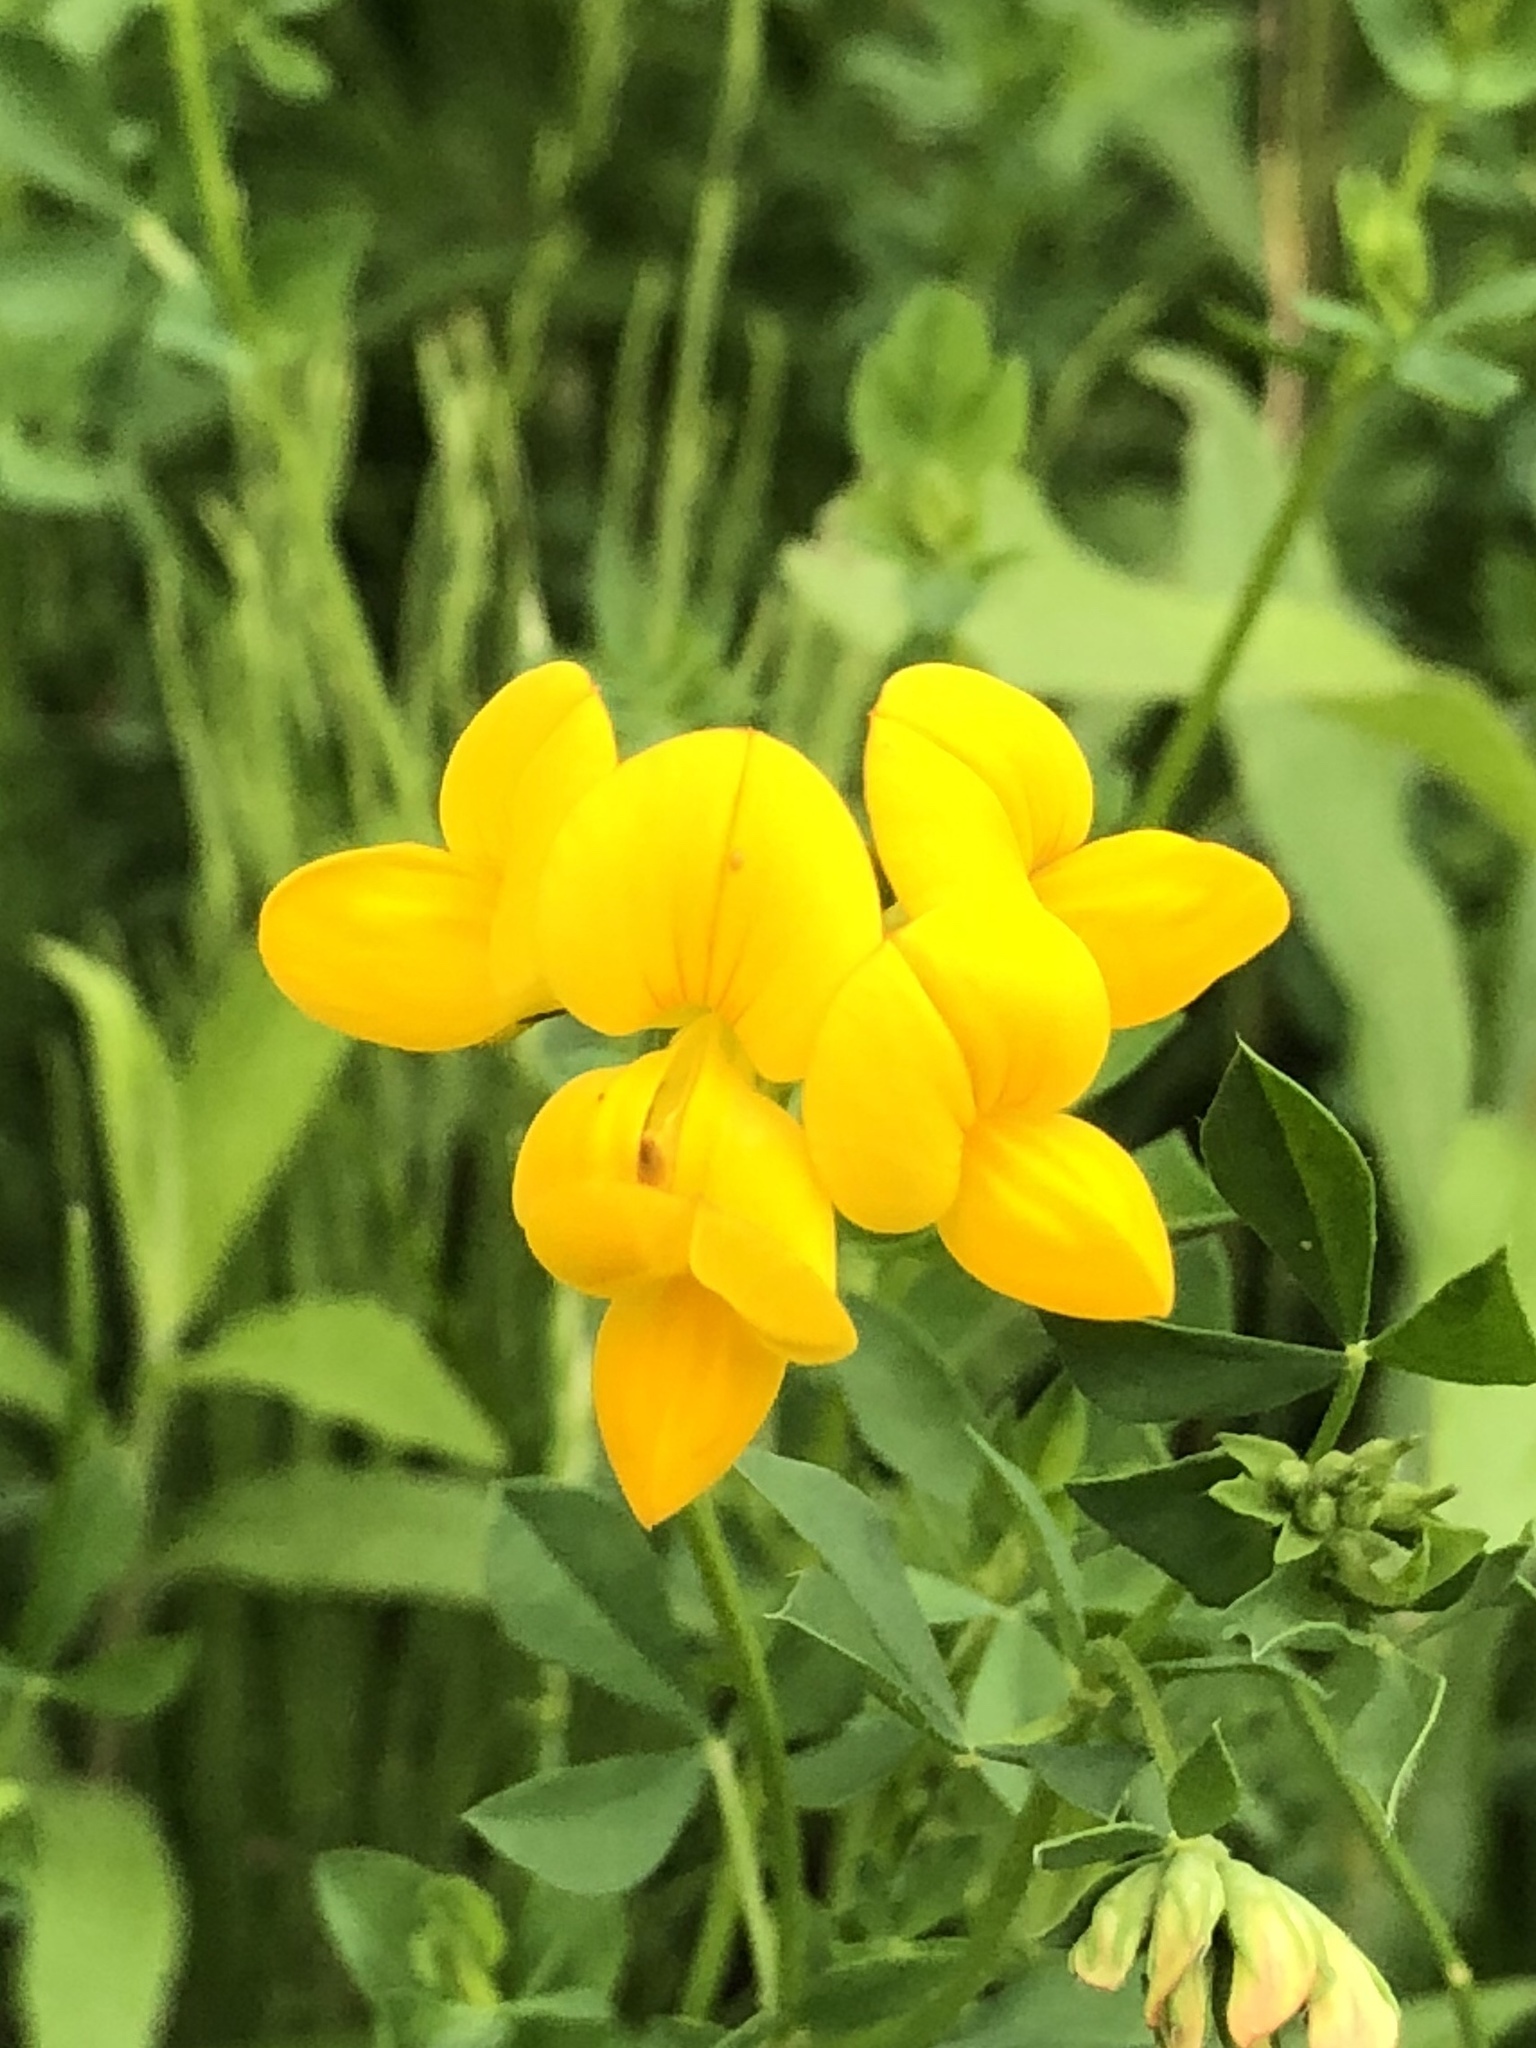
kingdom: Plantae
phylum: Tracheophyta
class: Magnoliopsida
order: Fabales
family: Fabaceae
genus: Lotus
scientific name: Lotus corniculatus
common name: Common bird's-foot-trefoil
